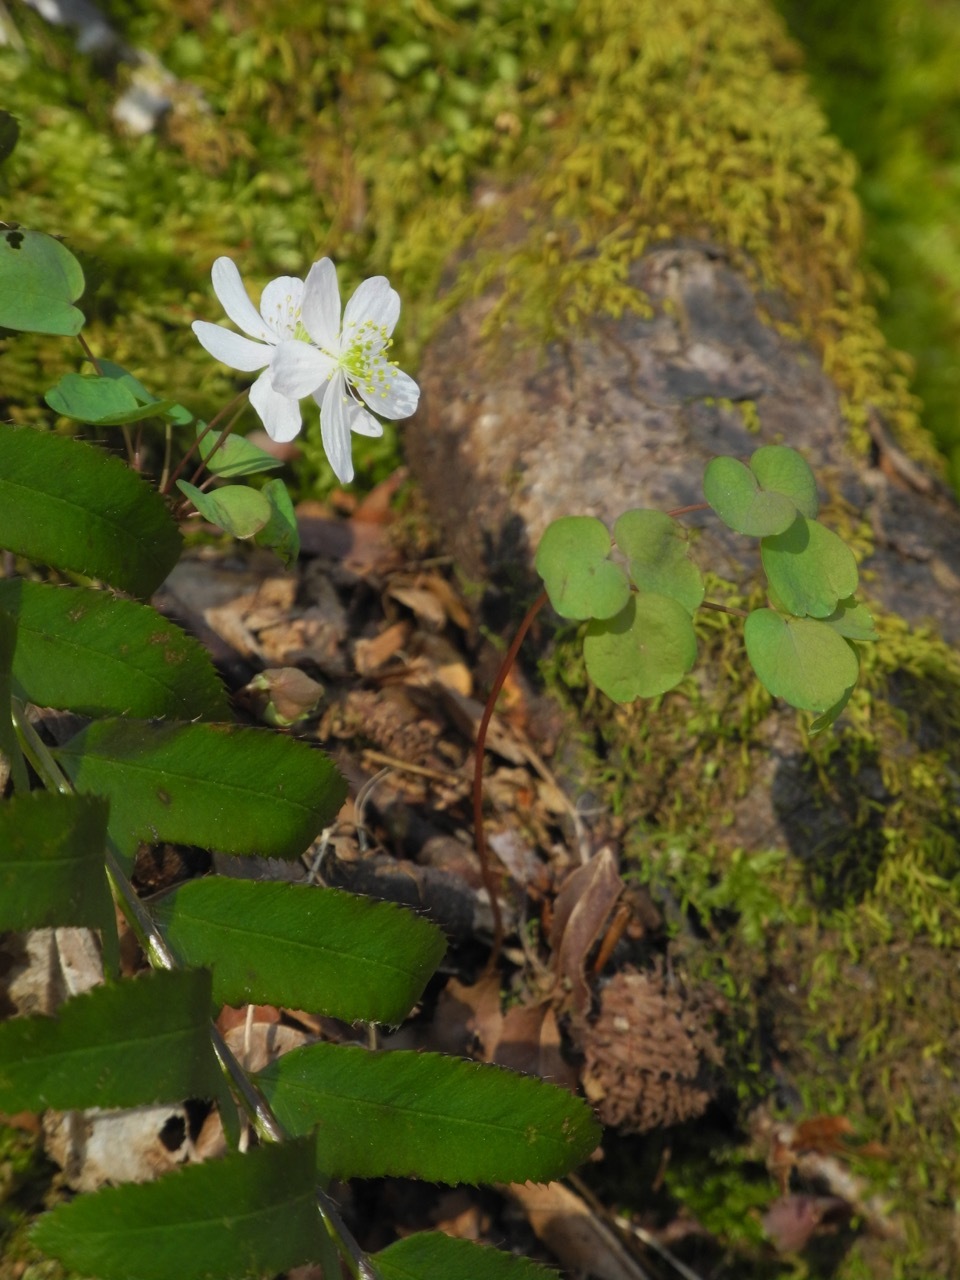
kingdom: Plantae
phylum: Tracheophyta
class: Magnoliopsida
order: Ranunculales
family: Ranunculaceae
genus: Thalictrum
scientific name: Thalictrum thalictroides
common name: Rue-anemone
